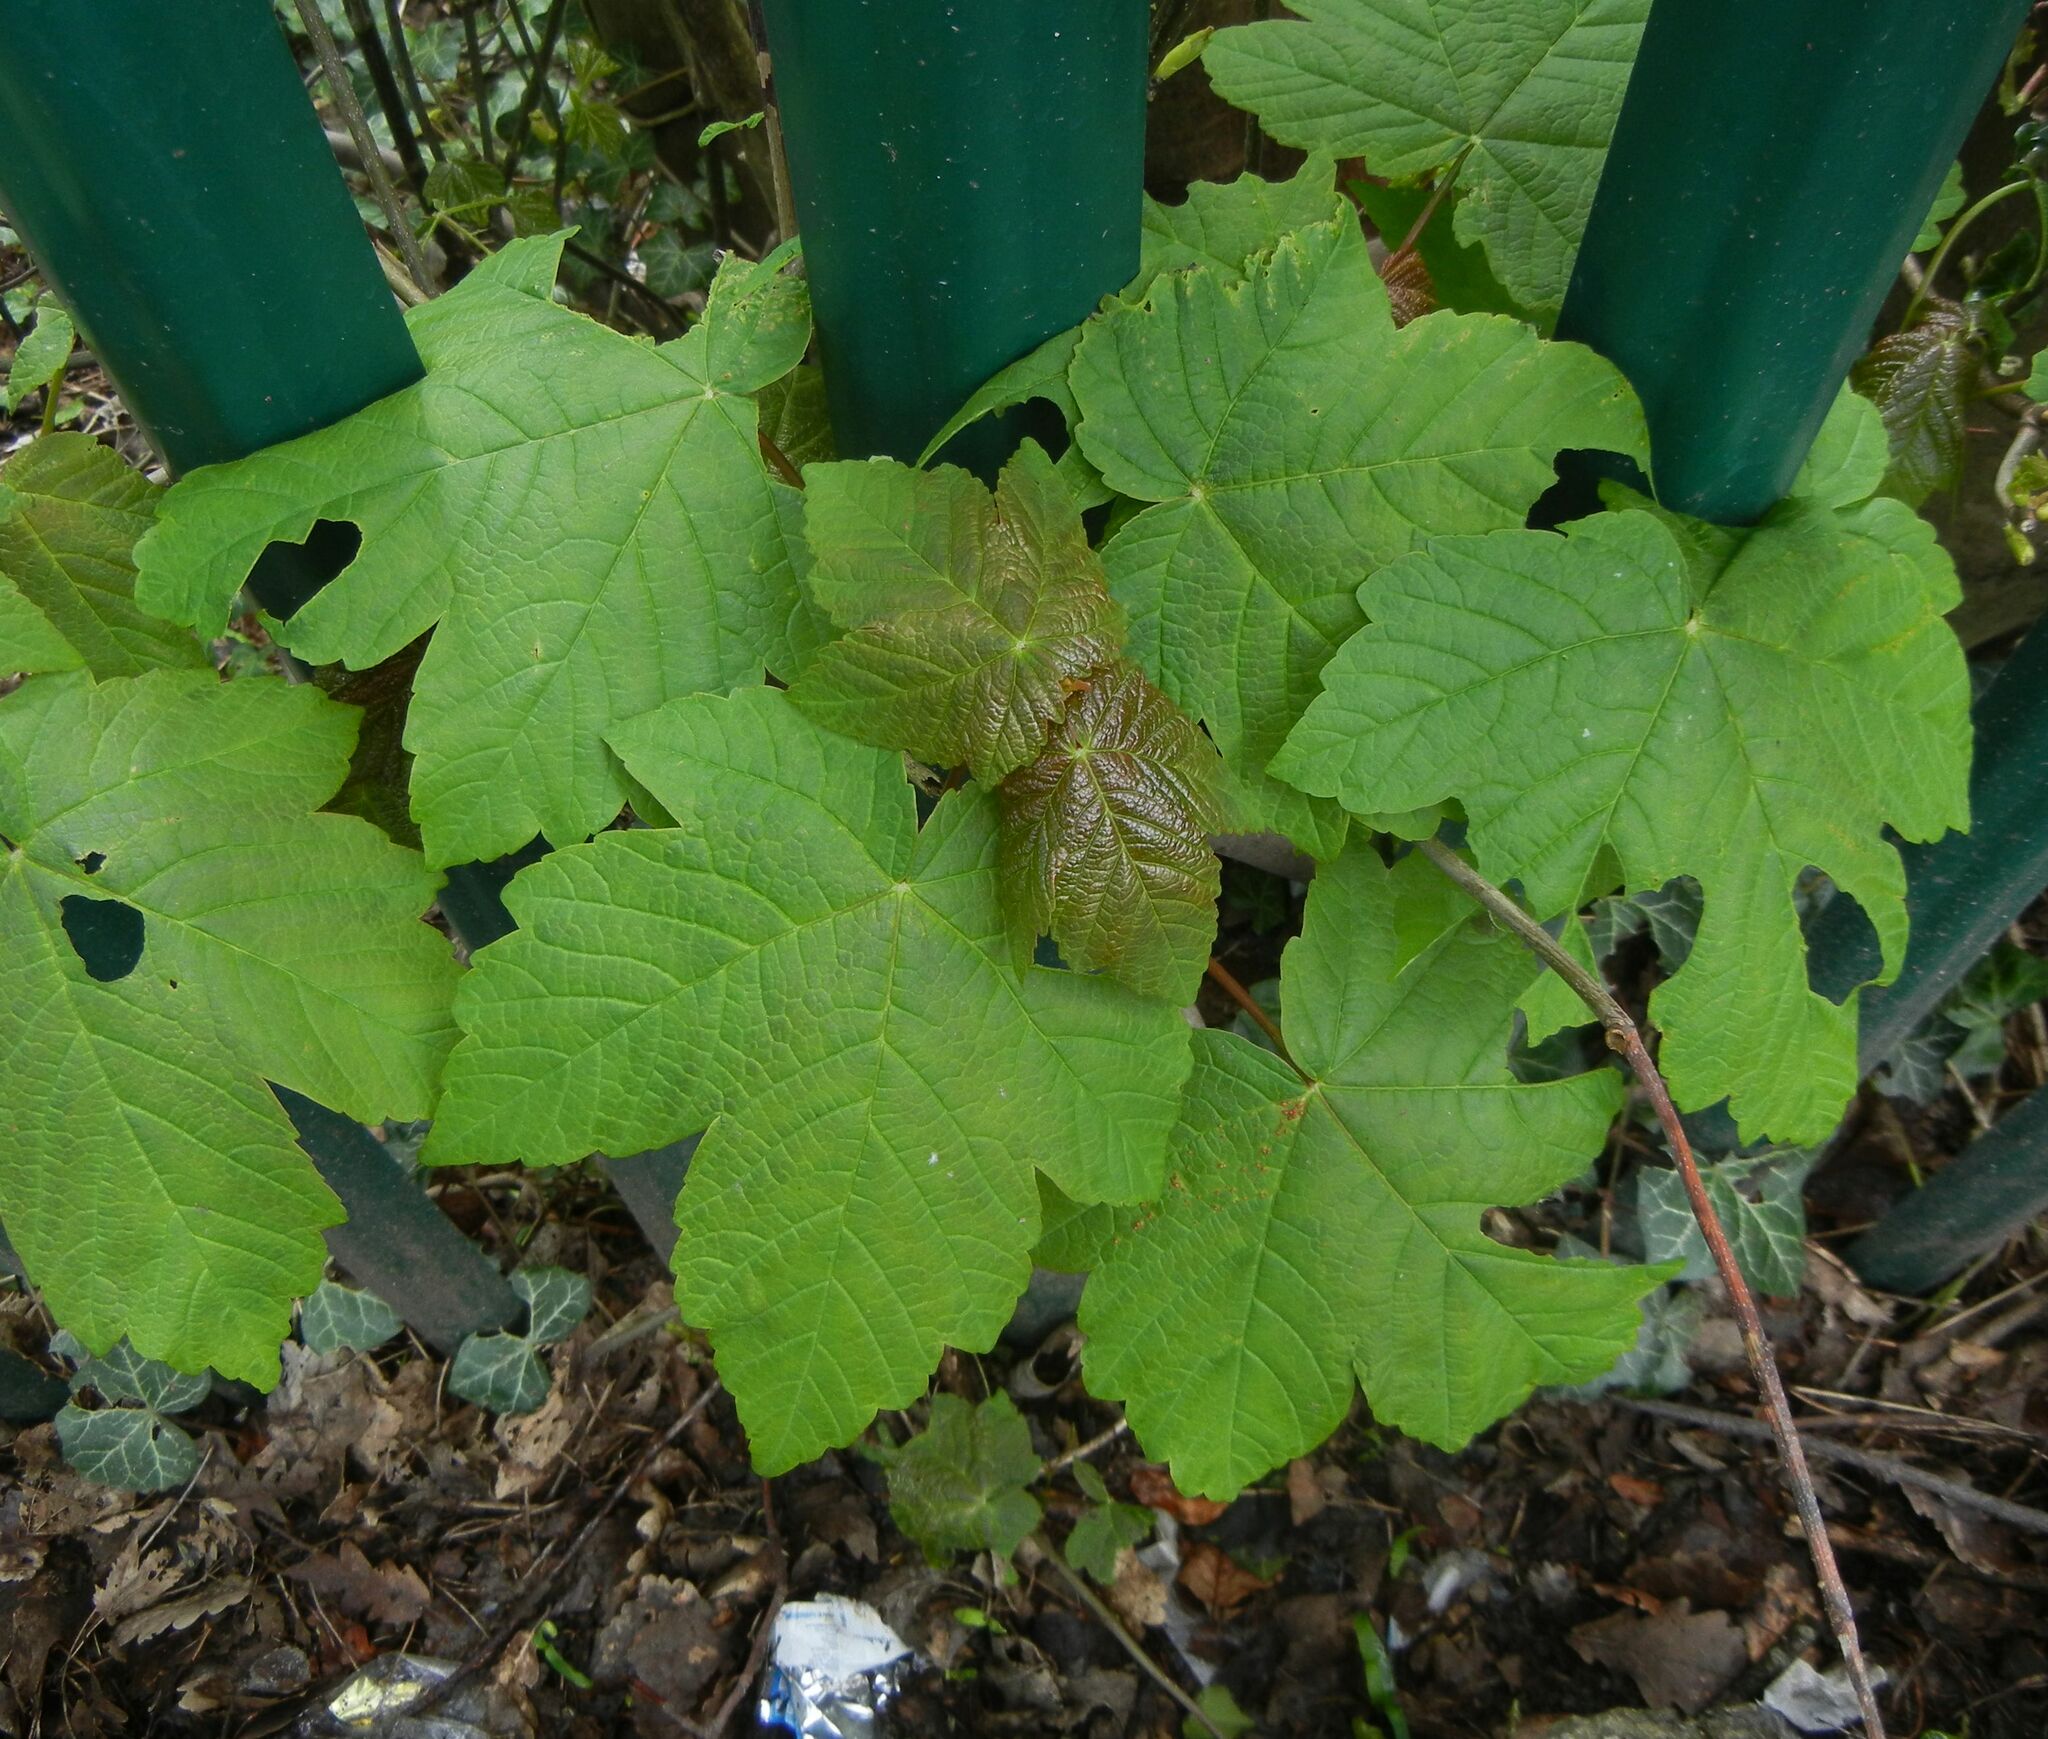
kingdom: Plantae
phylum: Tracheophyta
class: Magnoliopsida
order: Sapindales
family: Sapindaceae
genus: Acer
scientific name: Acer pseudoplatanus
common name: Sycamore
